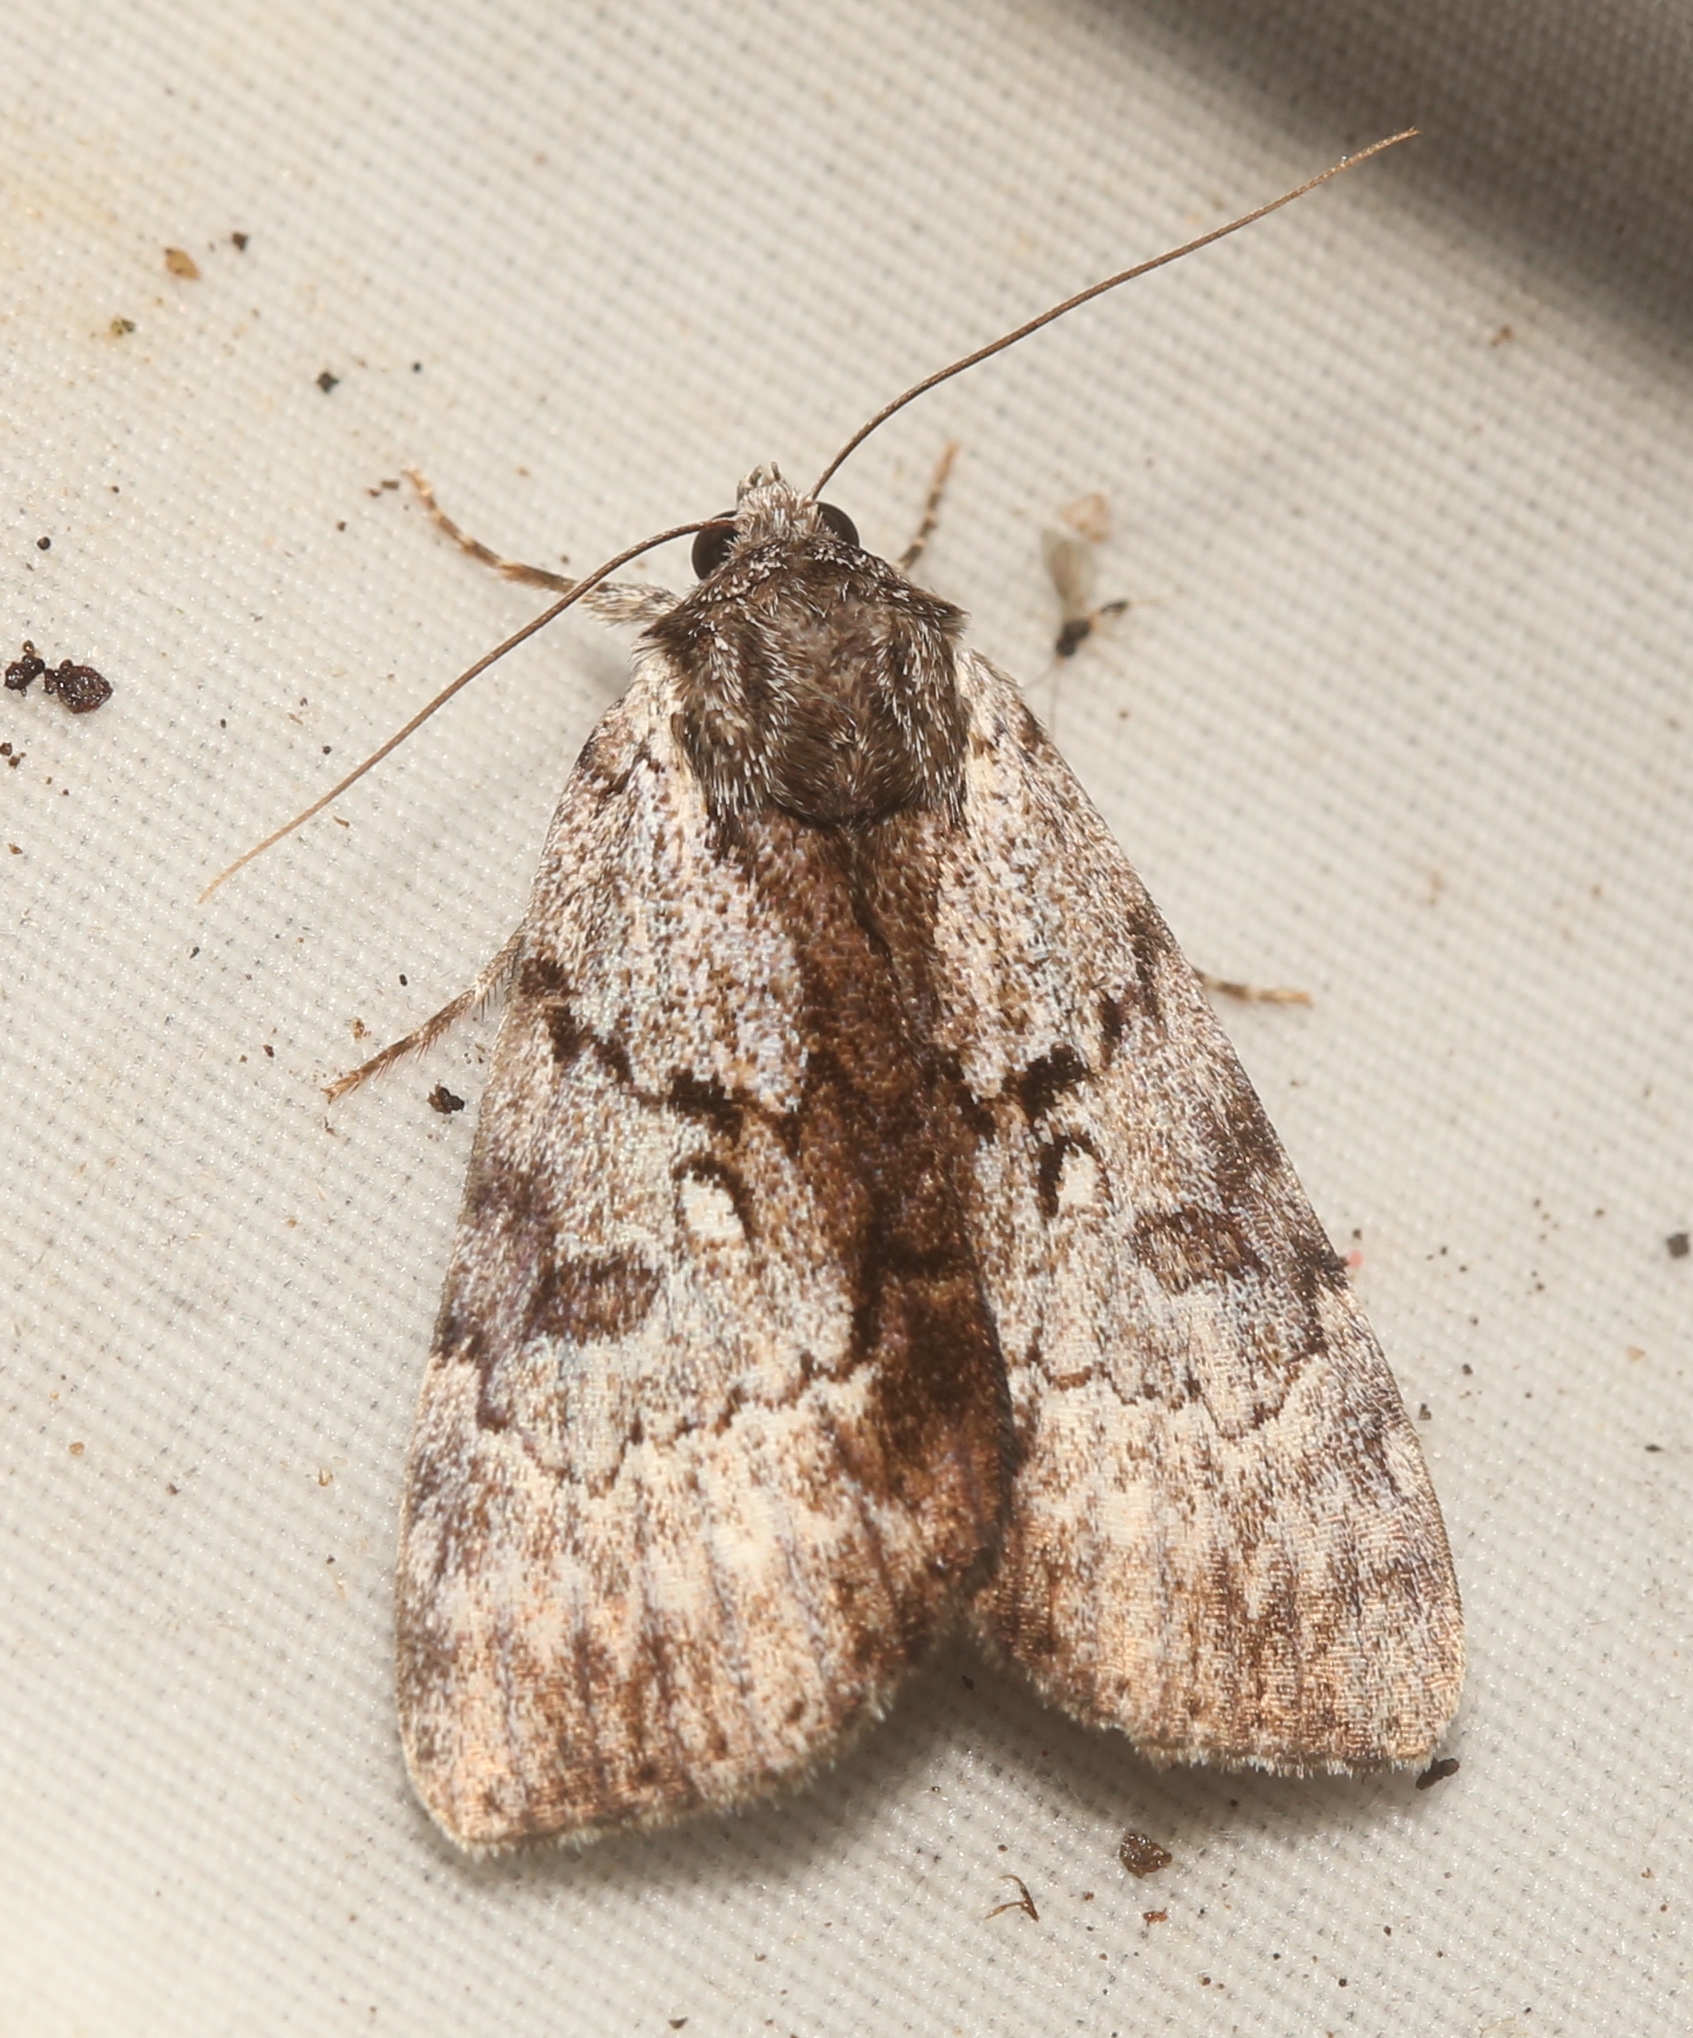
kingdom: Animalia
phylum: Arthropoda
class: Insecta
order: Lepidoptera
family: Erebidae
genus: Catocala
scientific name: Catocala andromedae
